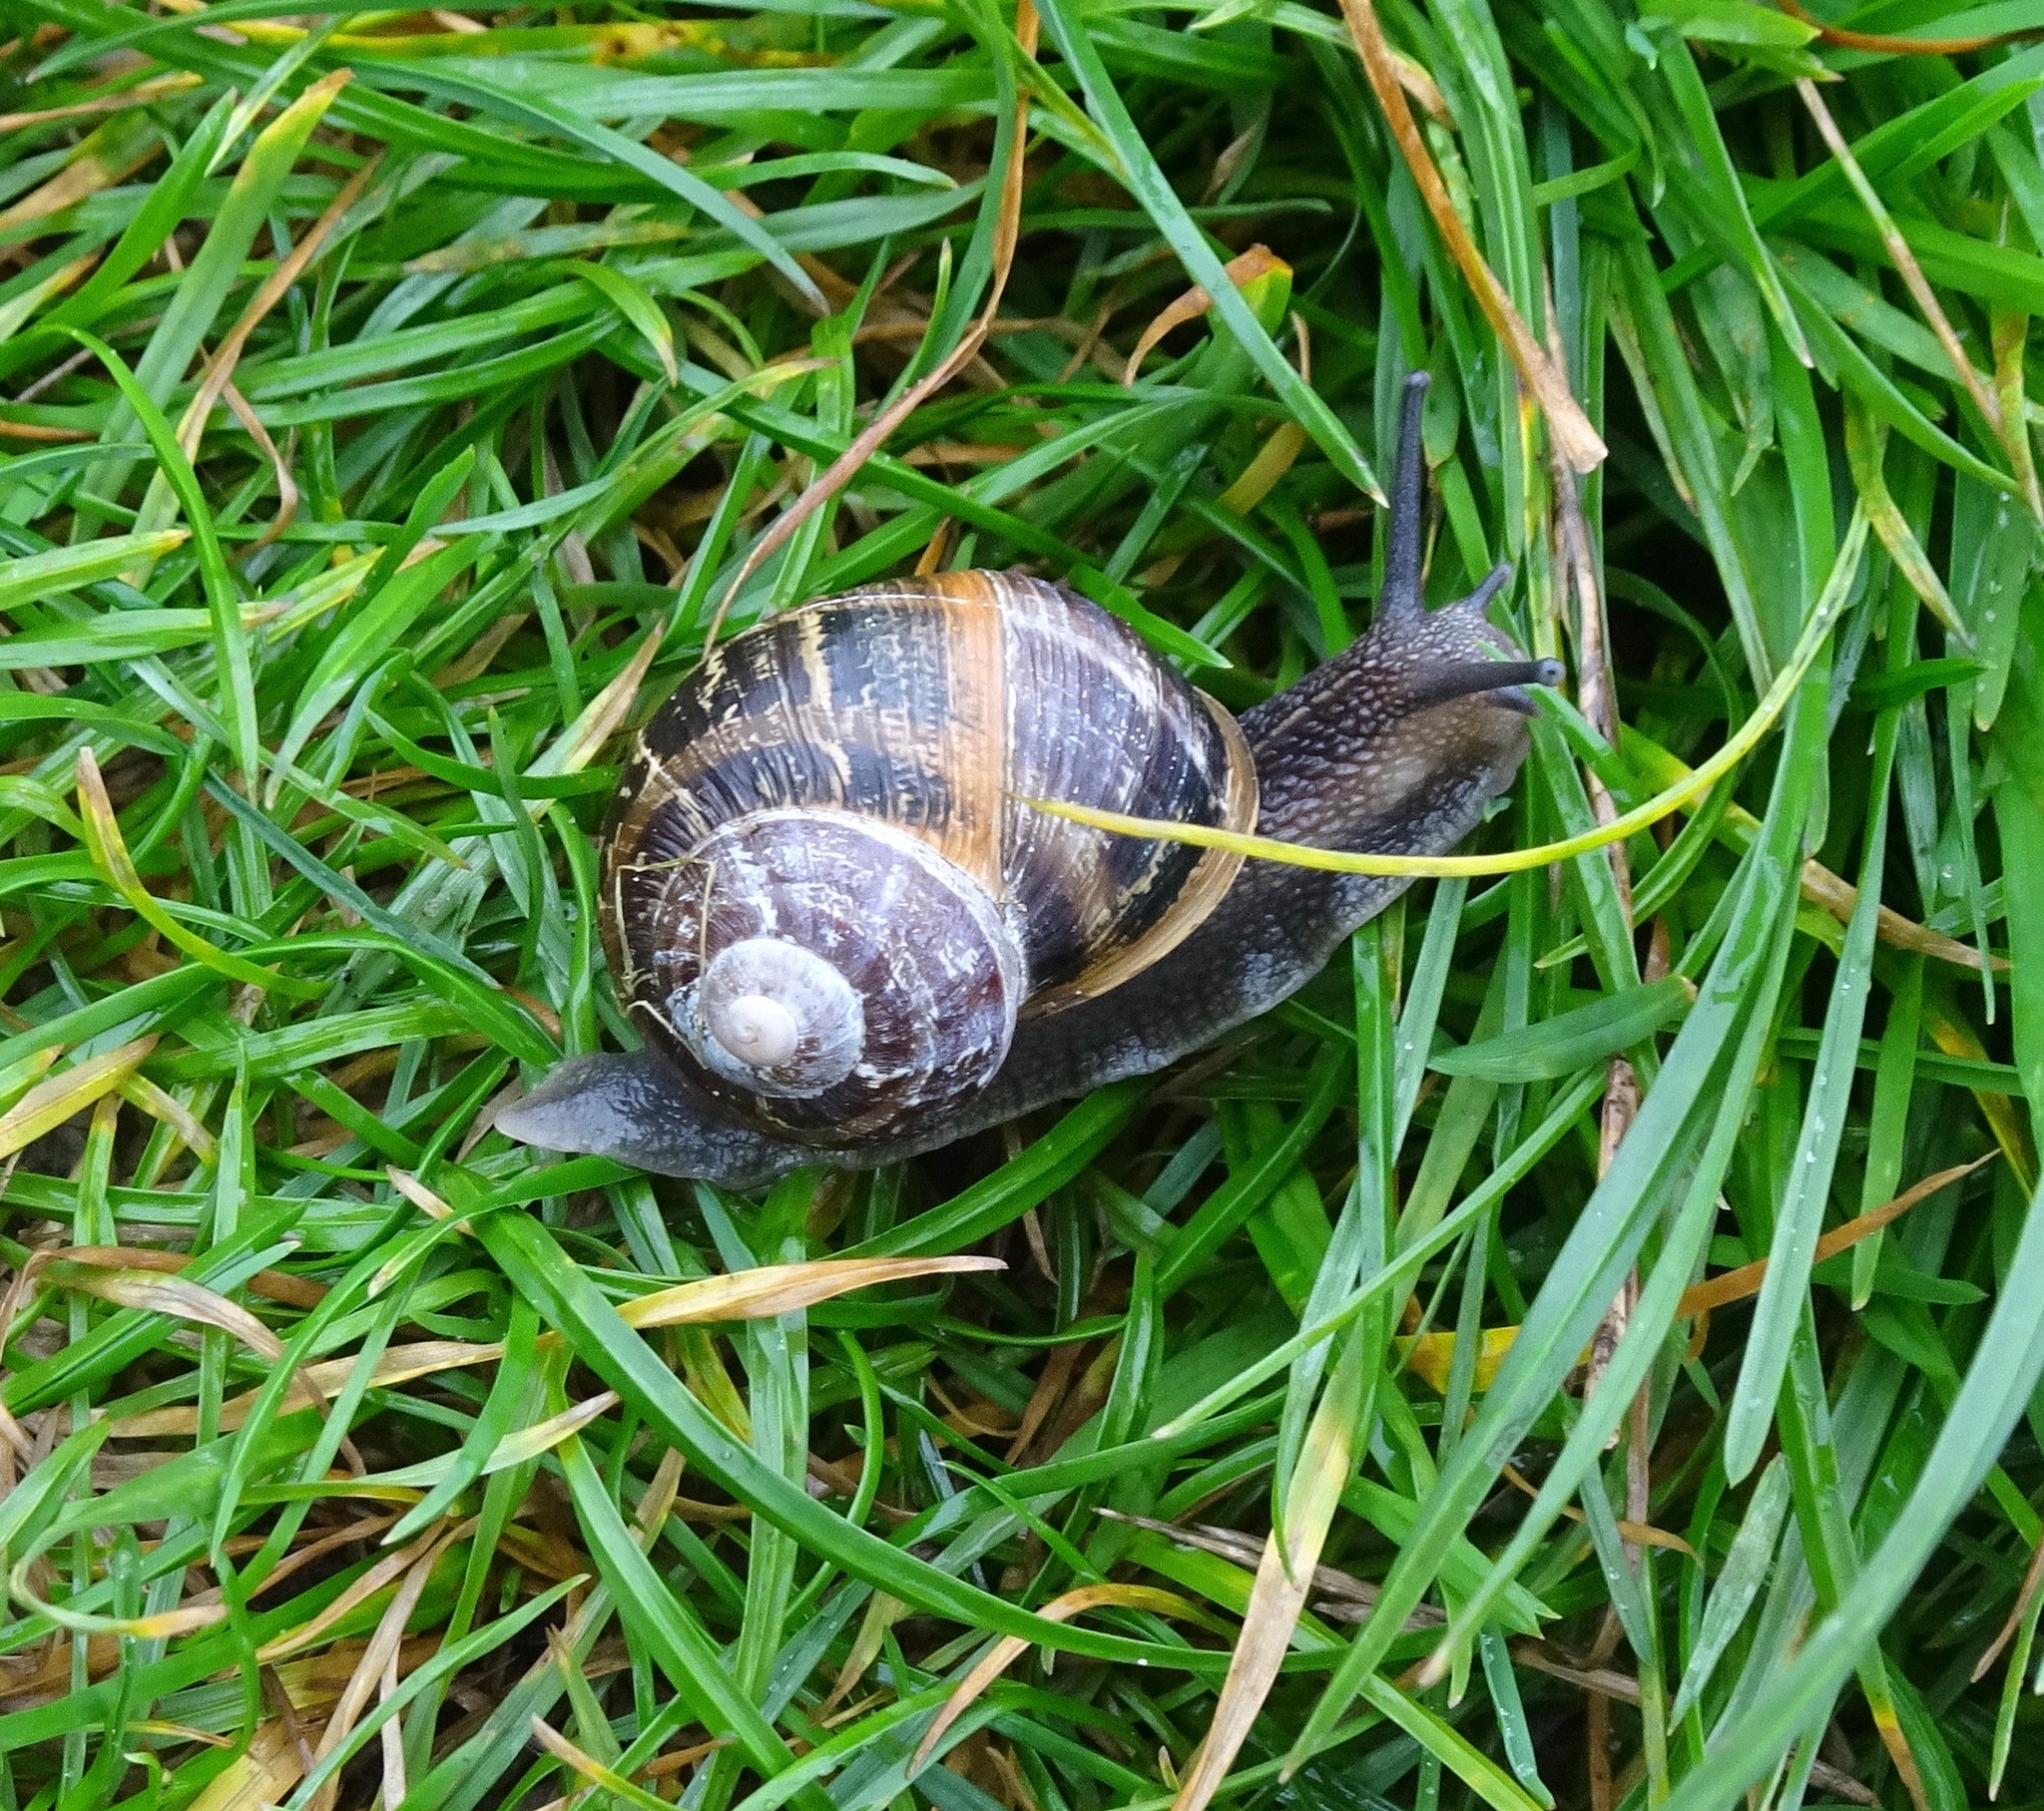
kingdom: Animalia
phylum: Mollusca
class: Gastropoda
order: Stylommatophora
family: Helicidae
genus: Cornu
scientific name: Cornu aspersum
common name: Brown garden snail
